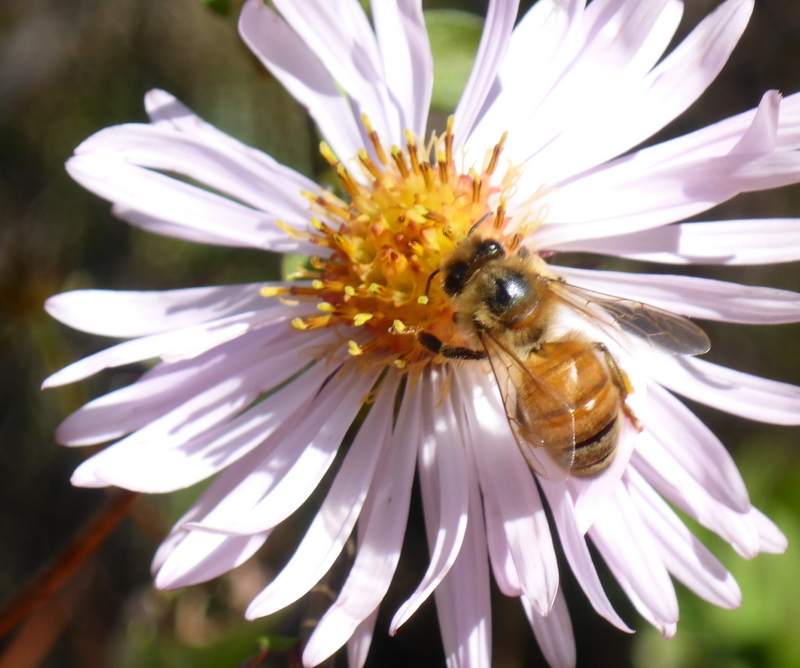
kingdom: Animalia
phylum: Arthropoda
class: Insecta
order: Hymenoptera
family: Apidae
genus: Apis
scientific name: Apis mellifera
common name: Honey bee
